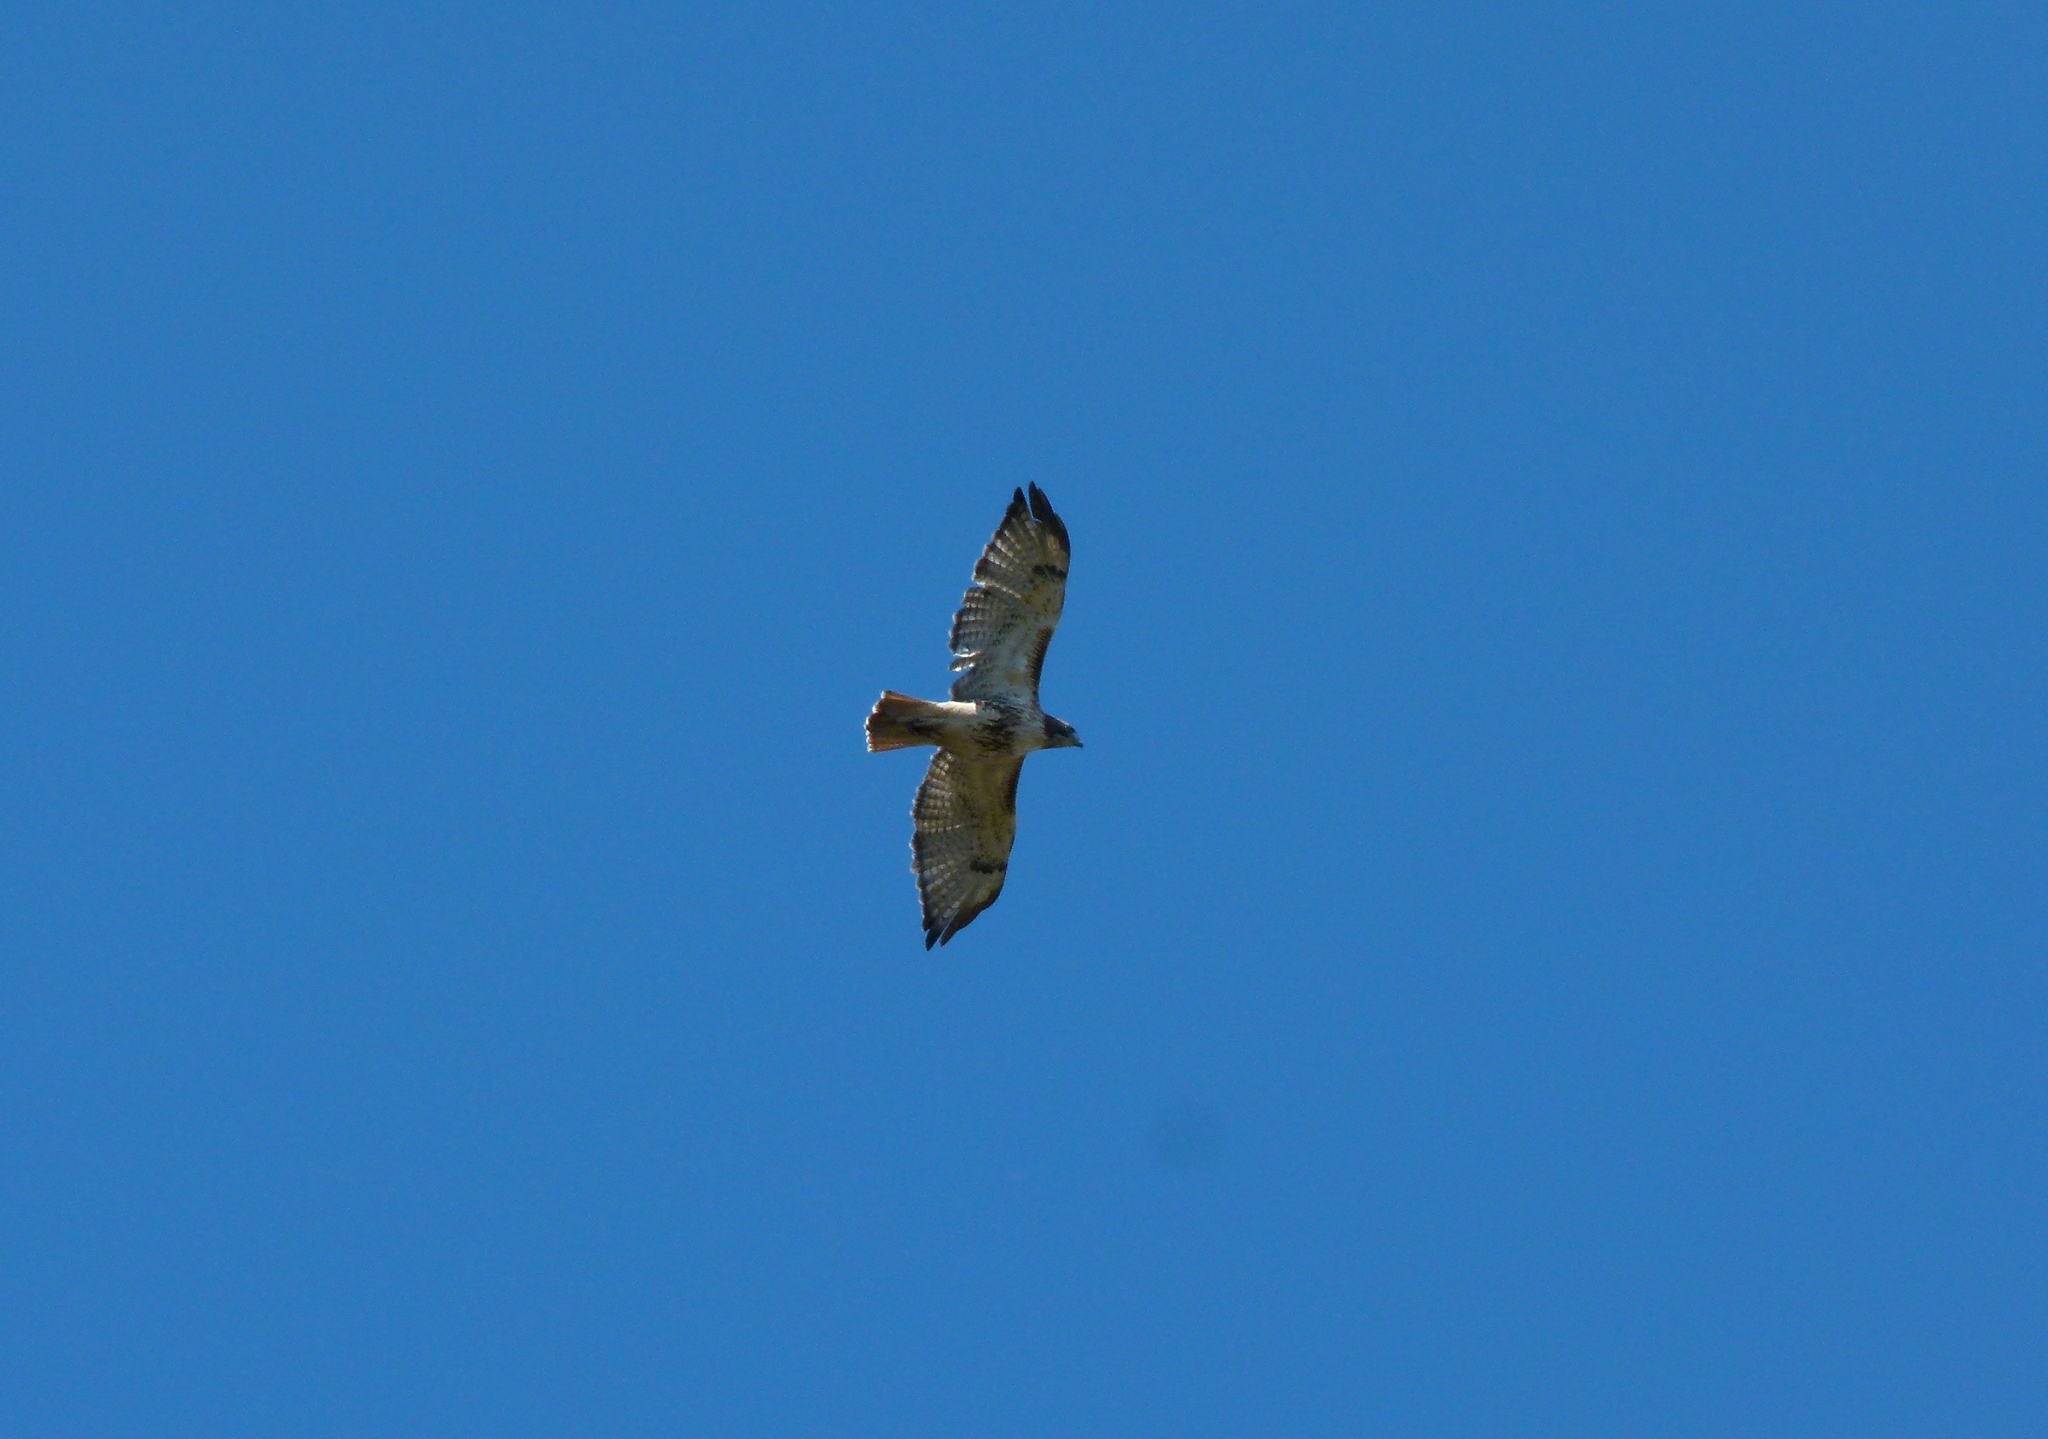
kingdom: Animalia
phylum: Chordata
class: Aves
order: Accipitriformes
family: Accipitridae
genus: Buteo
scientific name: Buteo jamaicensis
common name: Red-tailed hawk
